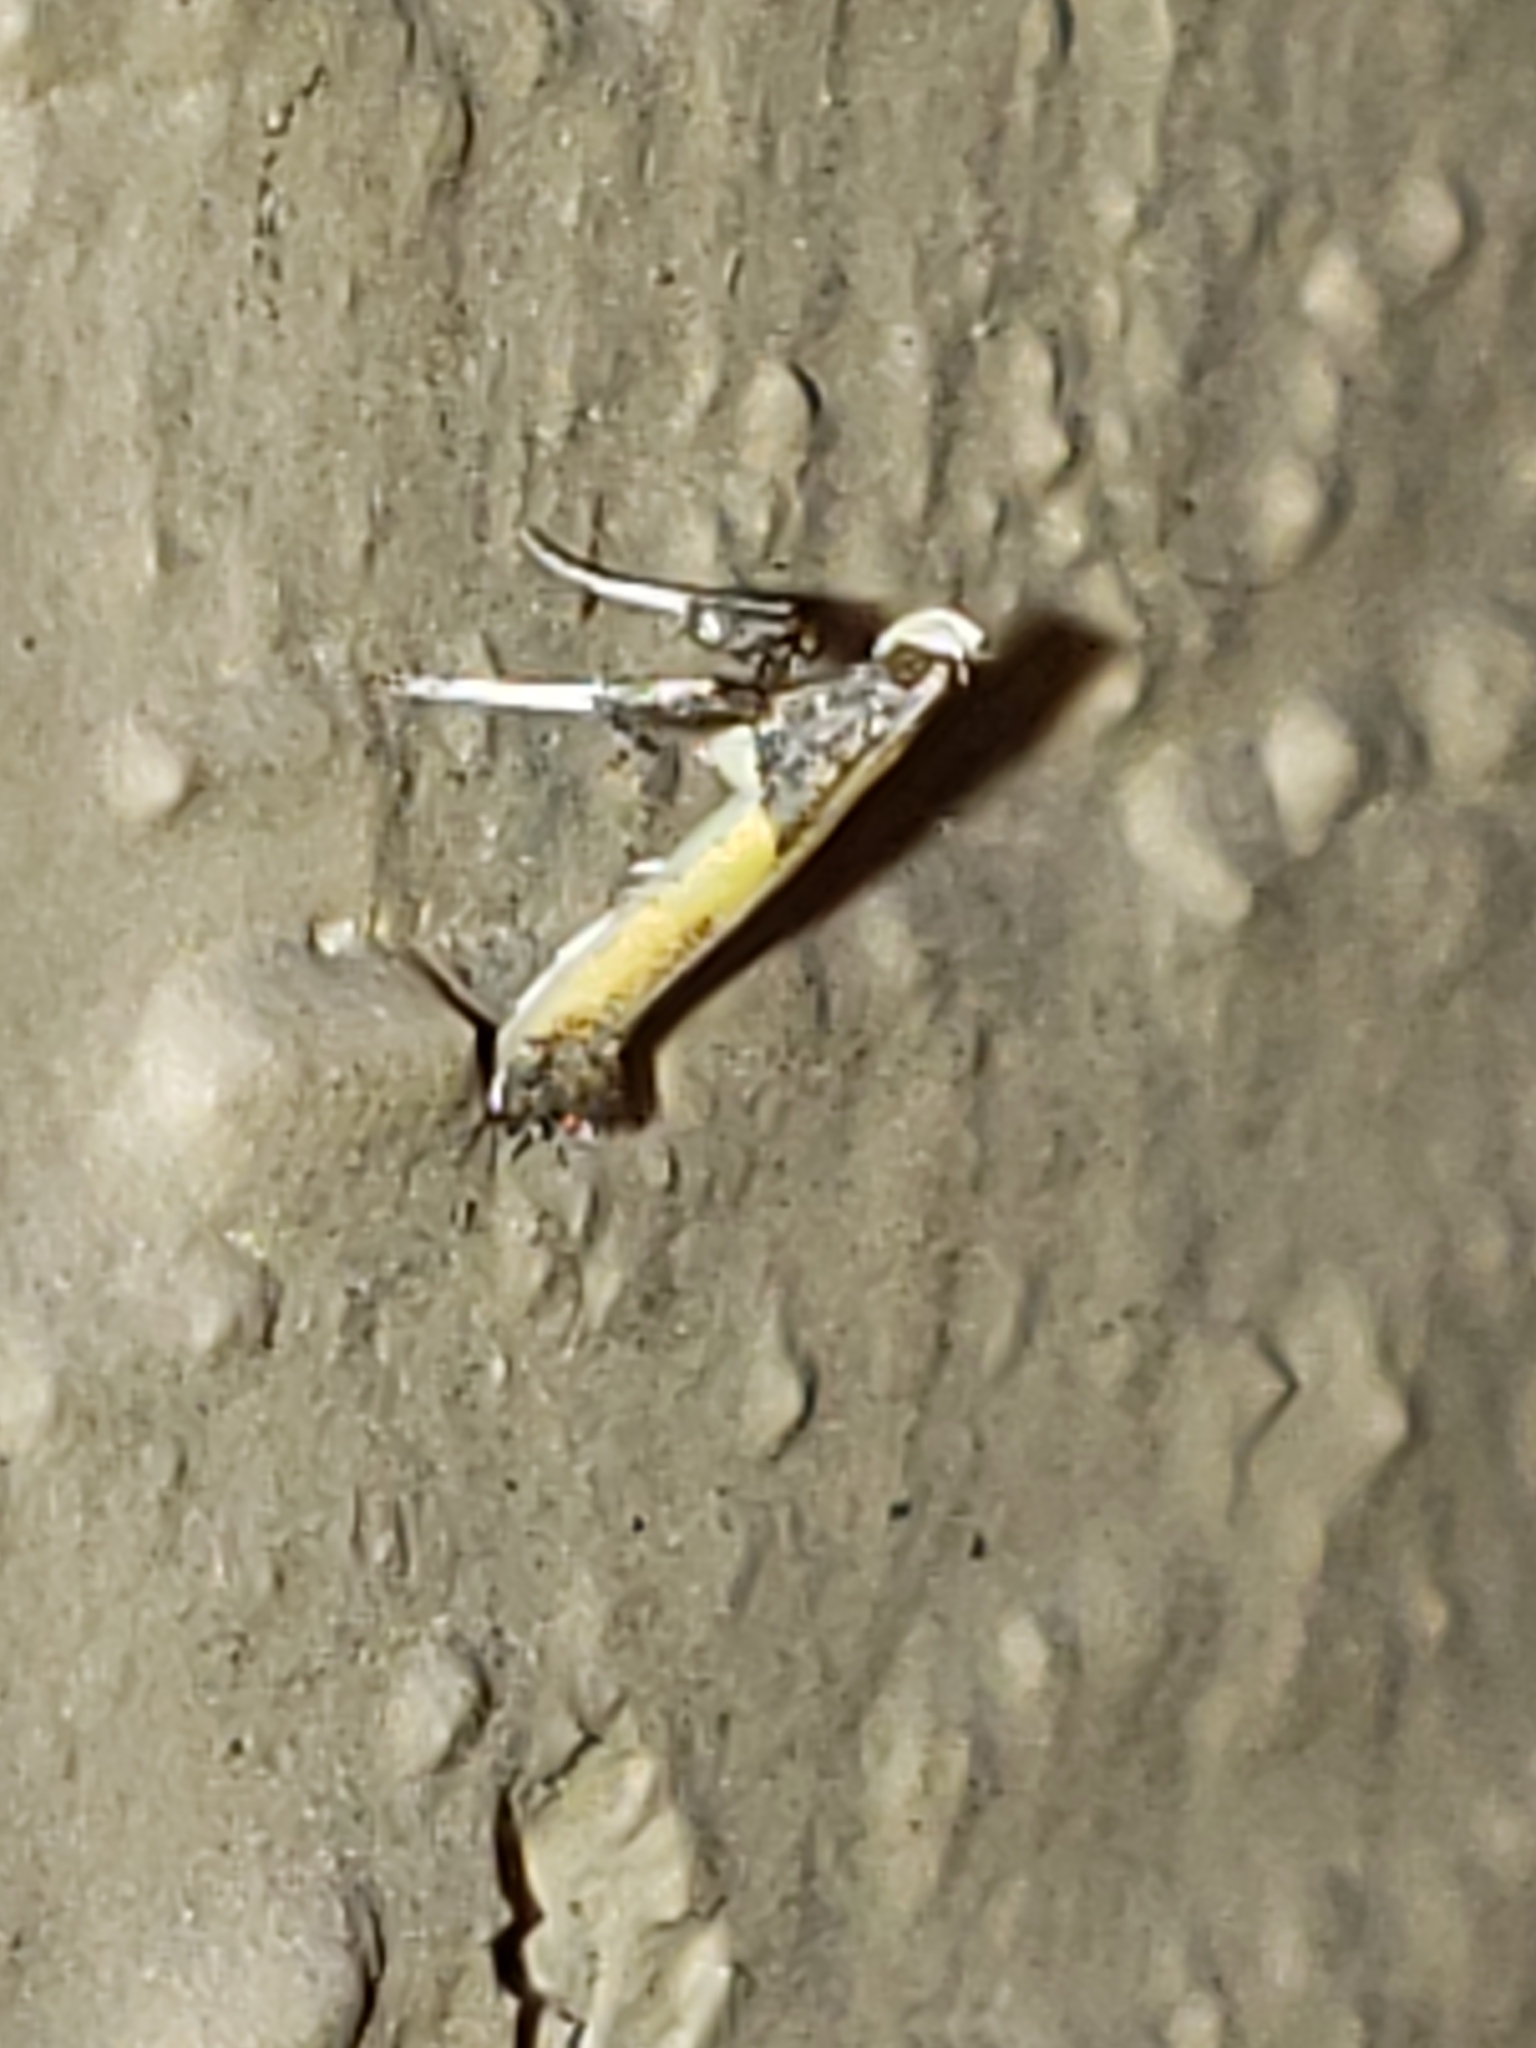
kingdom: Animalia
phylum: Arthropoda
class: Insecta
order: Lepidoptera
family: Gracillariidae
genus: Caloptilia
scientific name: Caloptilia azaleella
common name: Azalea leafminer
